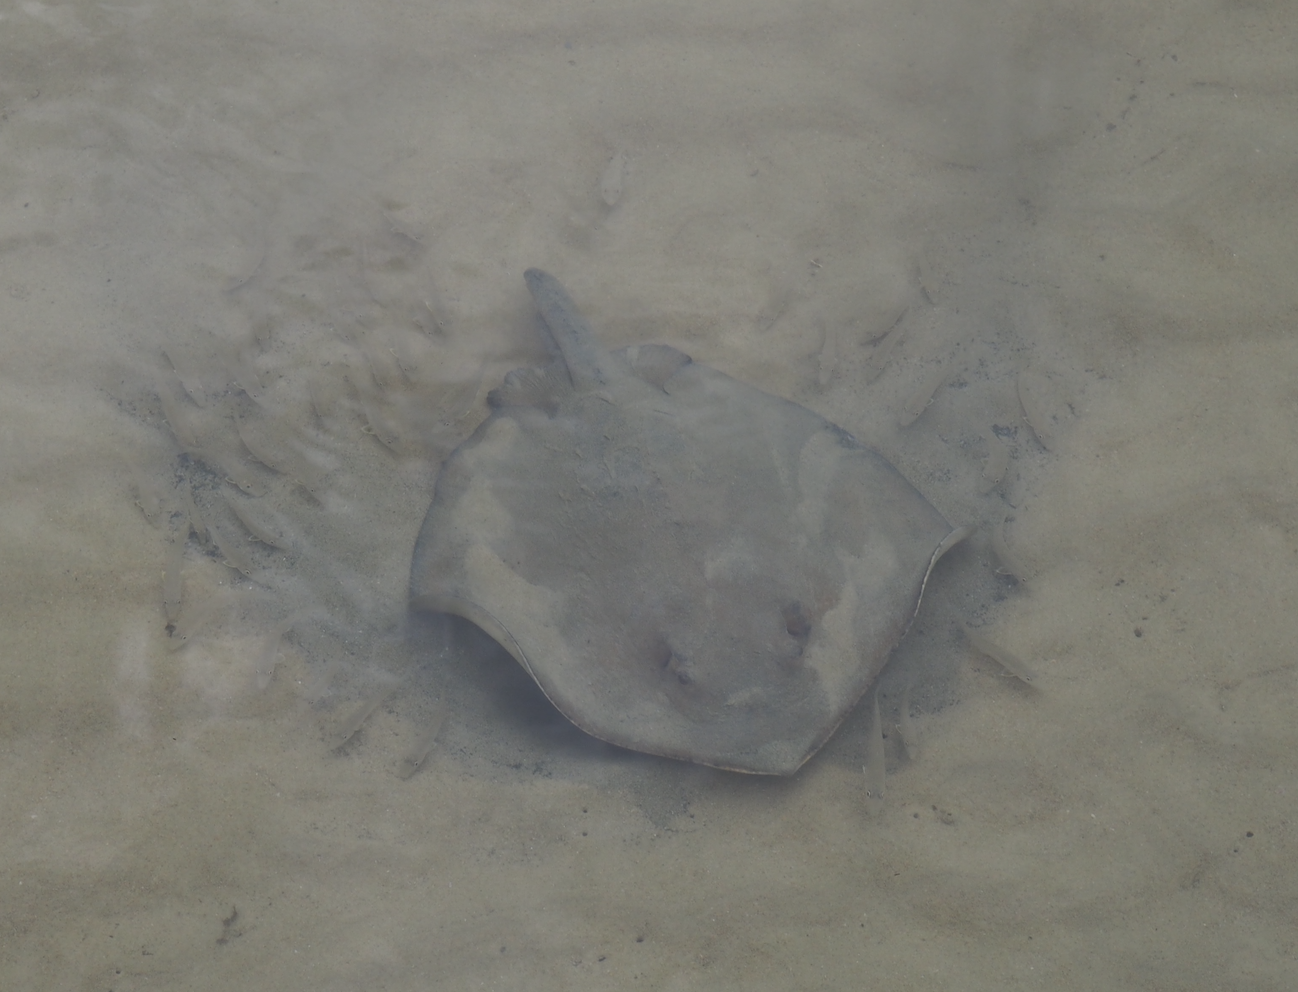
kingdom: Animalia
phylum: Chordata
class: Elasmobranchii
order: Myliobatiformes
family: Dasyatidae
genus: Hemitrygon
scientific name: Hemitrygon fluviorum
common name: Estuary stingray
